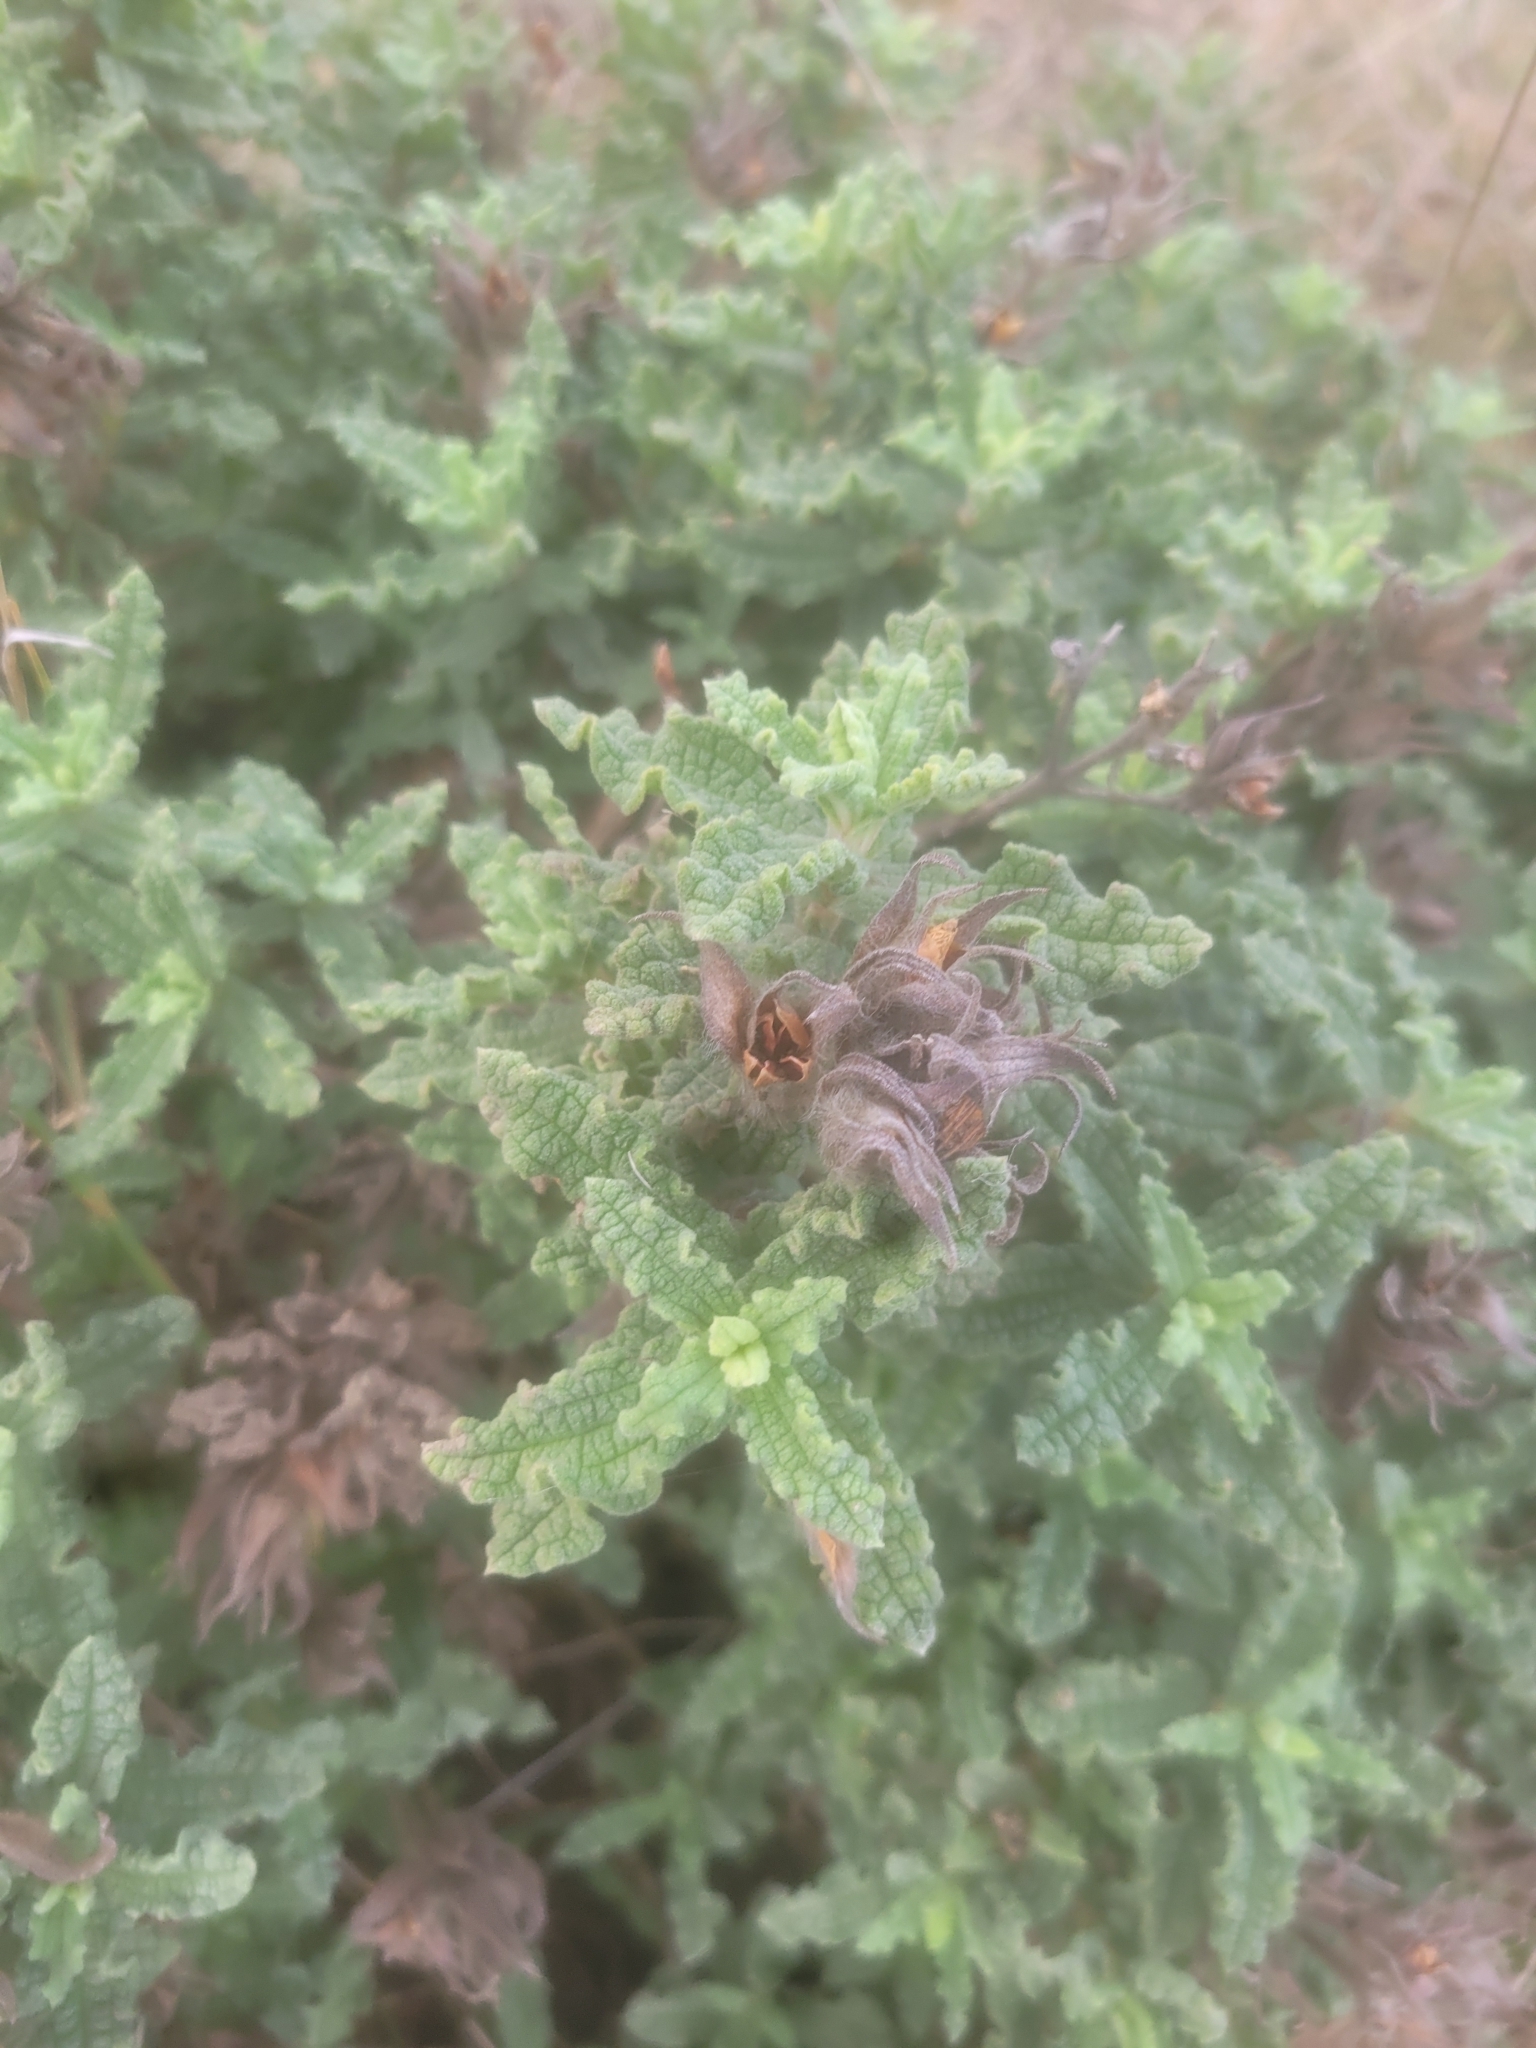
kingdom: Plantae
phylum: Tracheophyta
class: Magnoliopsida
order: Malvales
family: Cistaceae
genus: Cistus
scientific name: Cistus crispus
